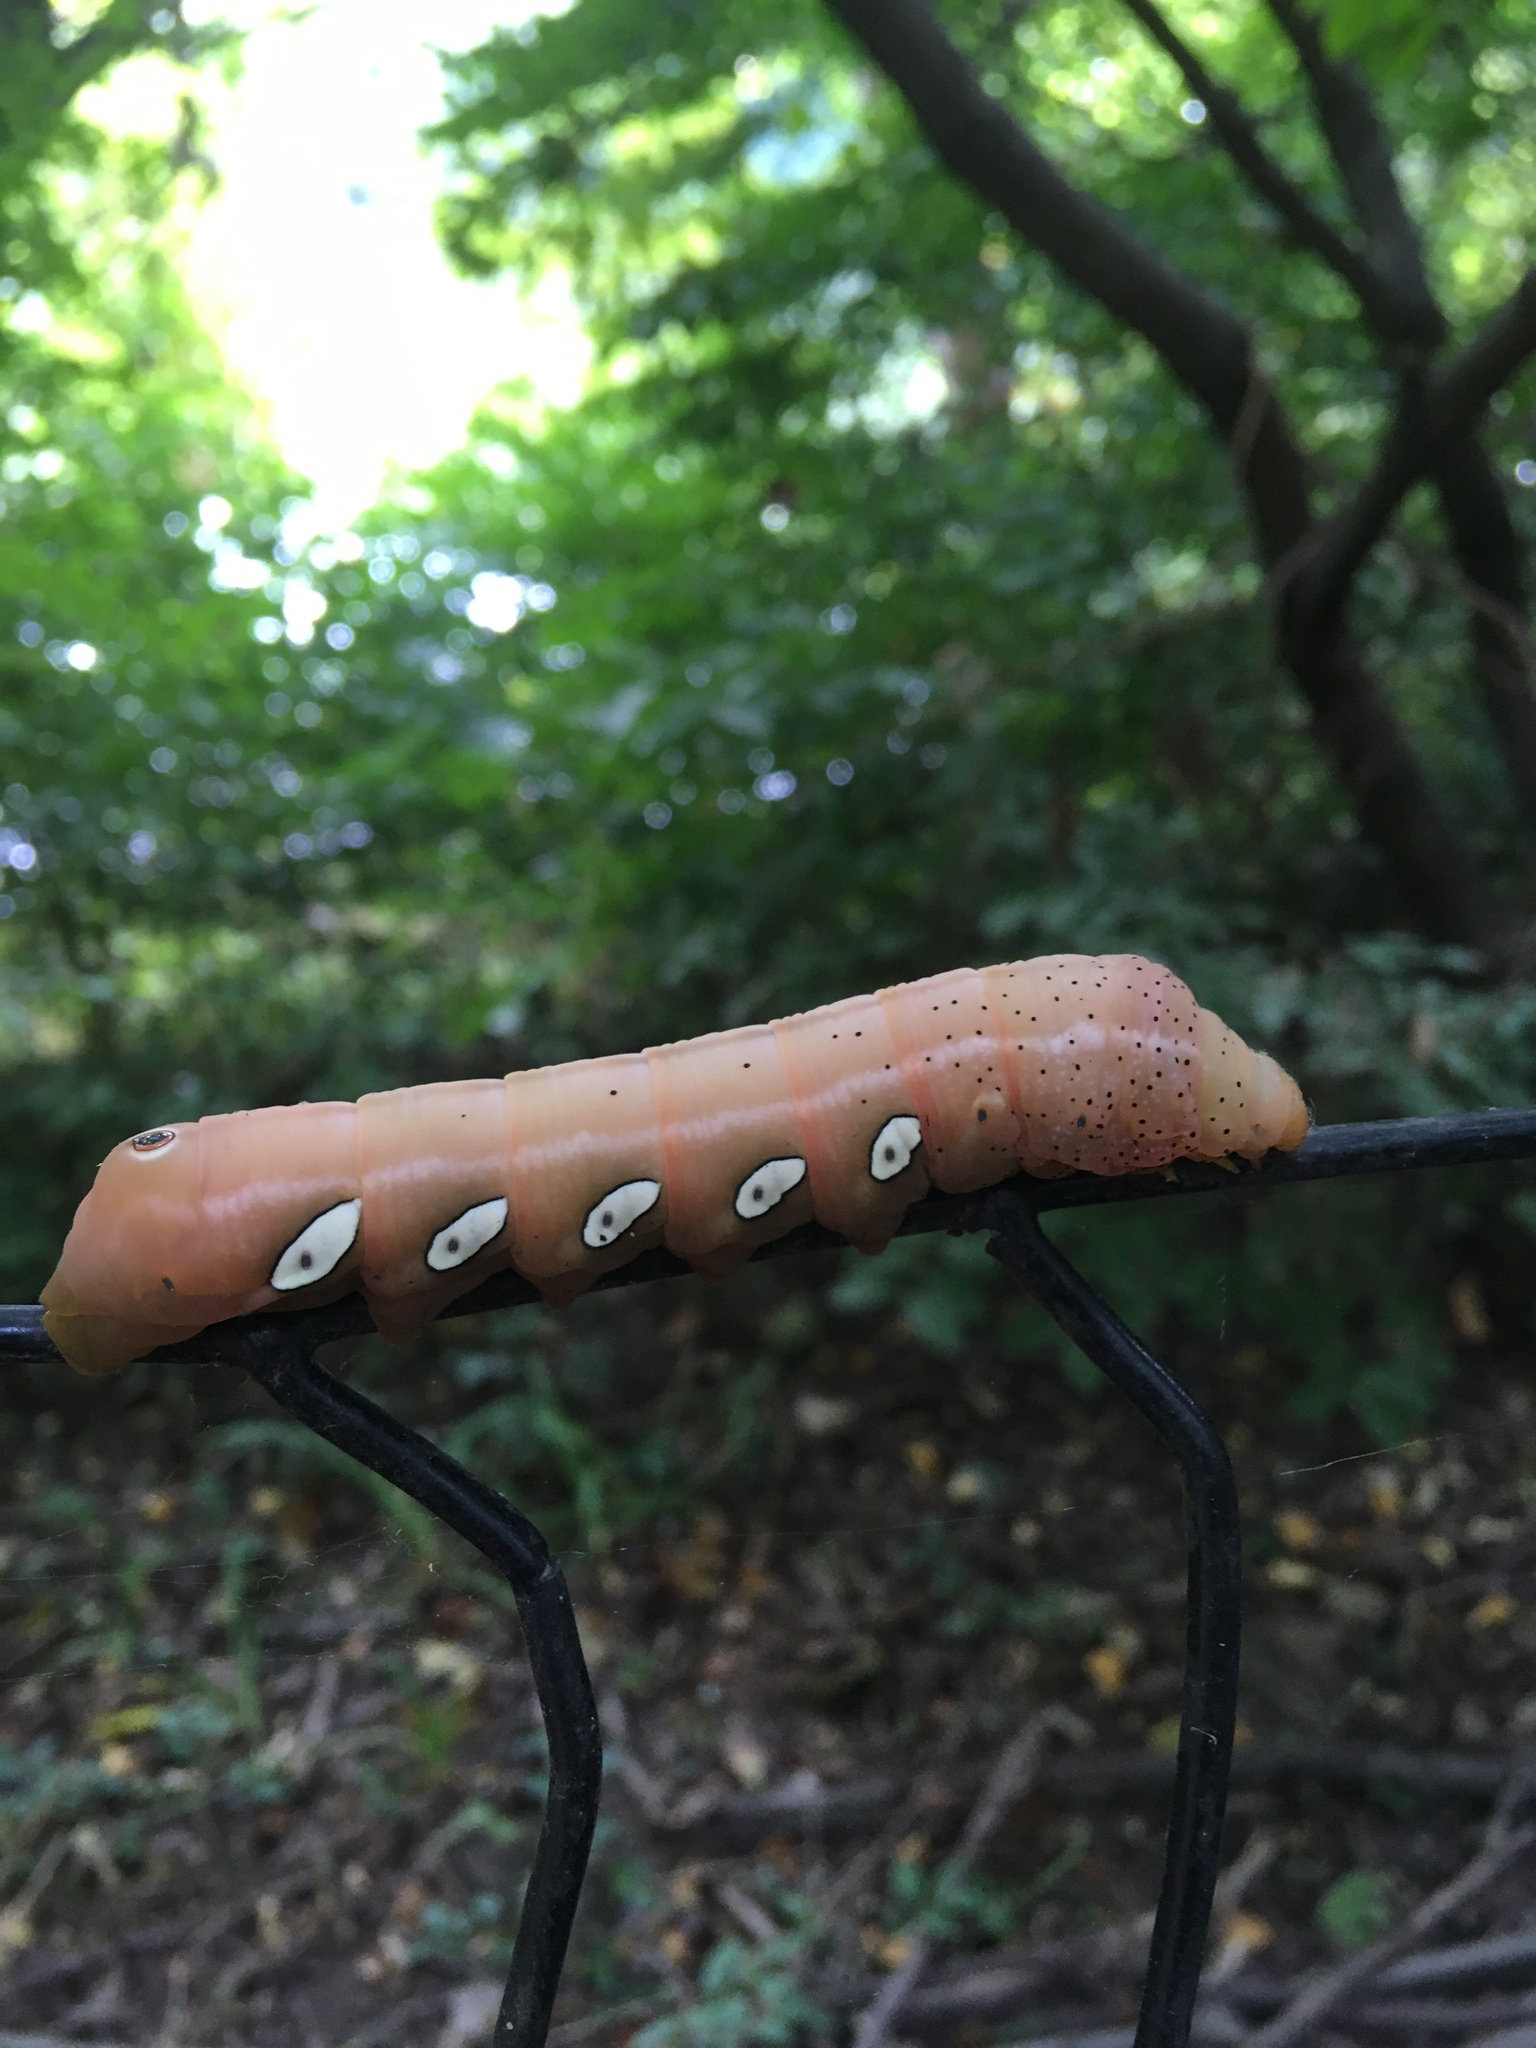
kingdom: Animalia
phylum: Arthropoda
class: Insecta
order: Lepidoptera
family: Sphingidae
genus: Eumorpha
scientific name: Eumorpha pandorus
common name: Pandora sphinx
